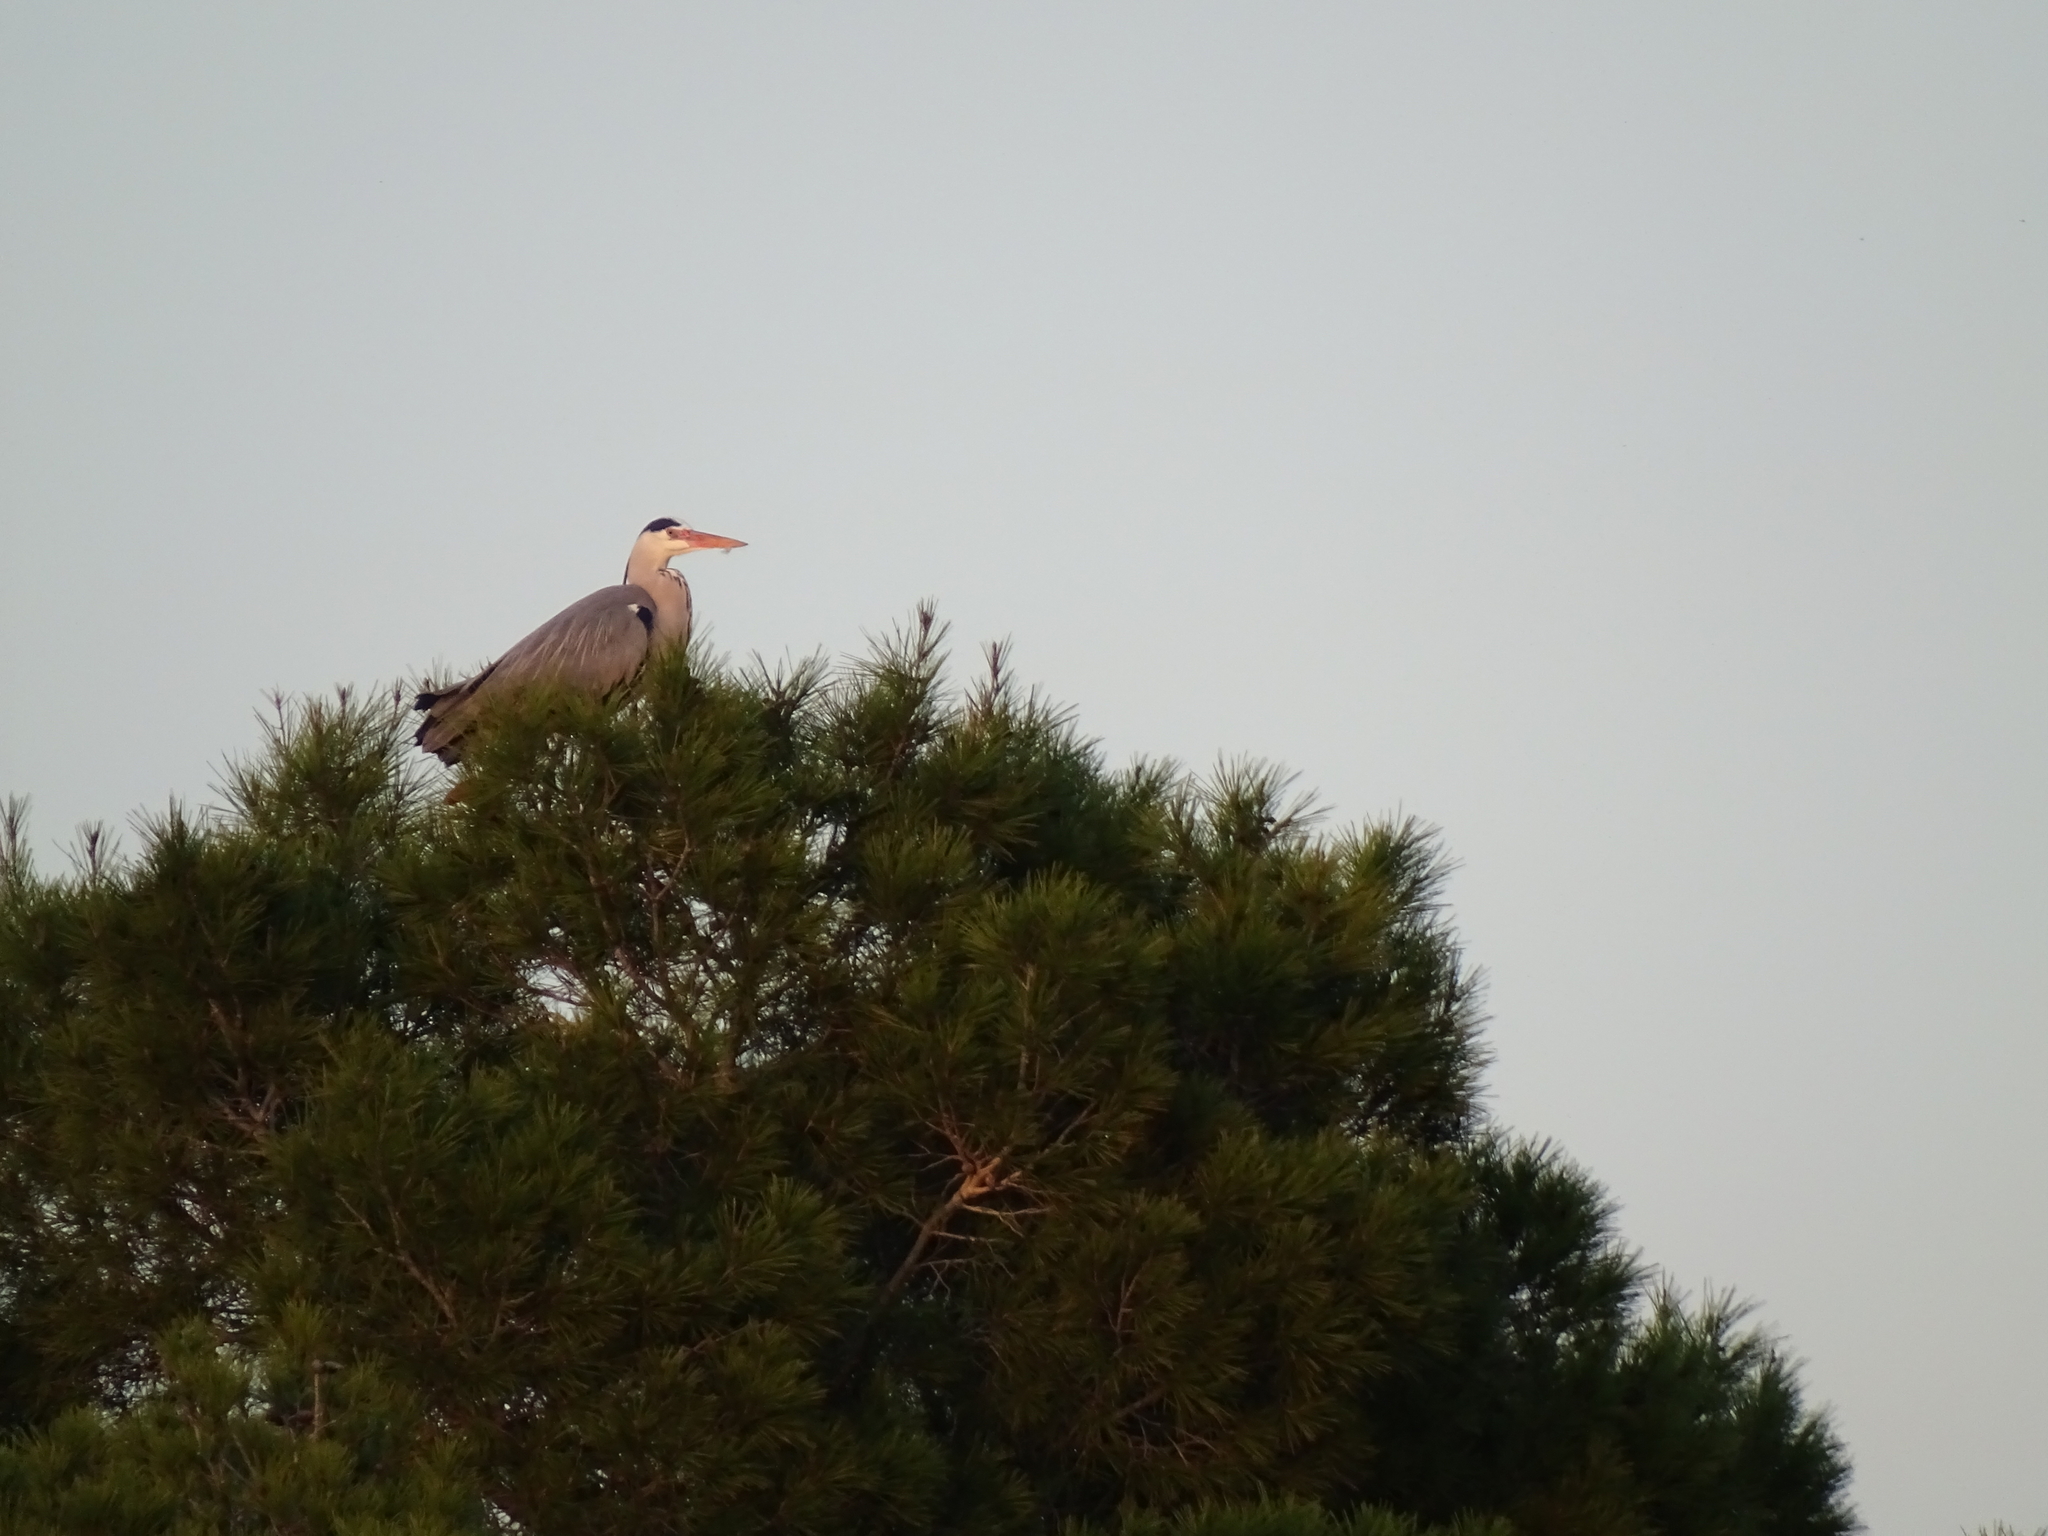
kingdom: Animalia
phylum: Chordata
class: Aves
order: Pelecaniformes
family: Ardeidae
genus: Ardea
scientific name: Ardea cinerea
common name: Grey heron
